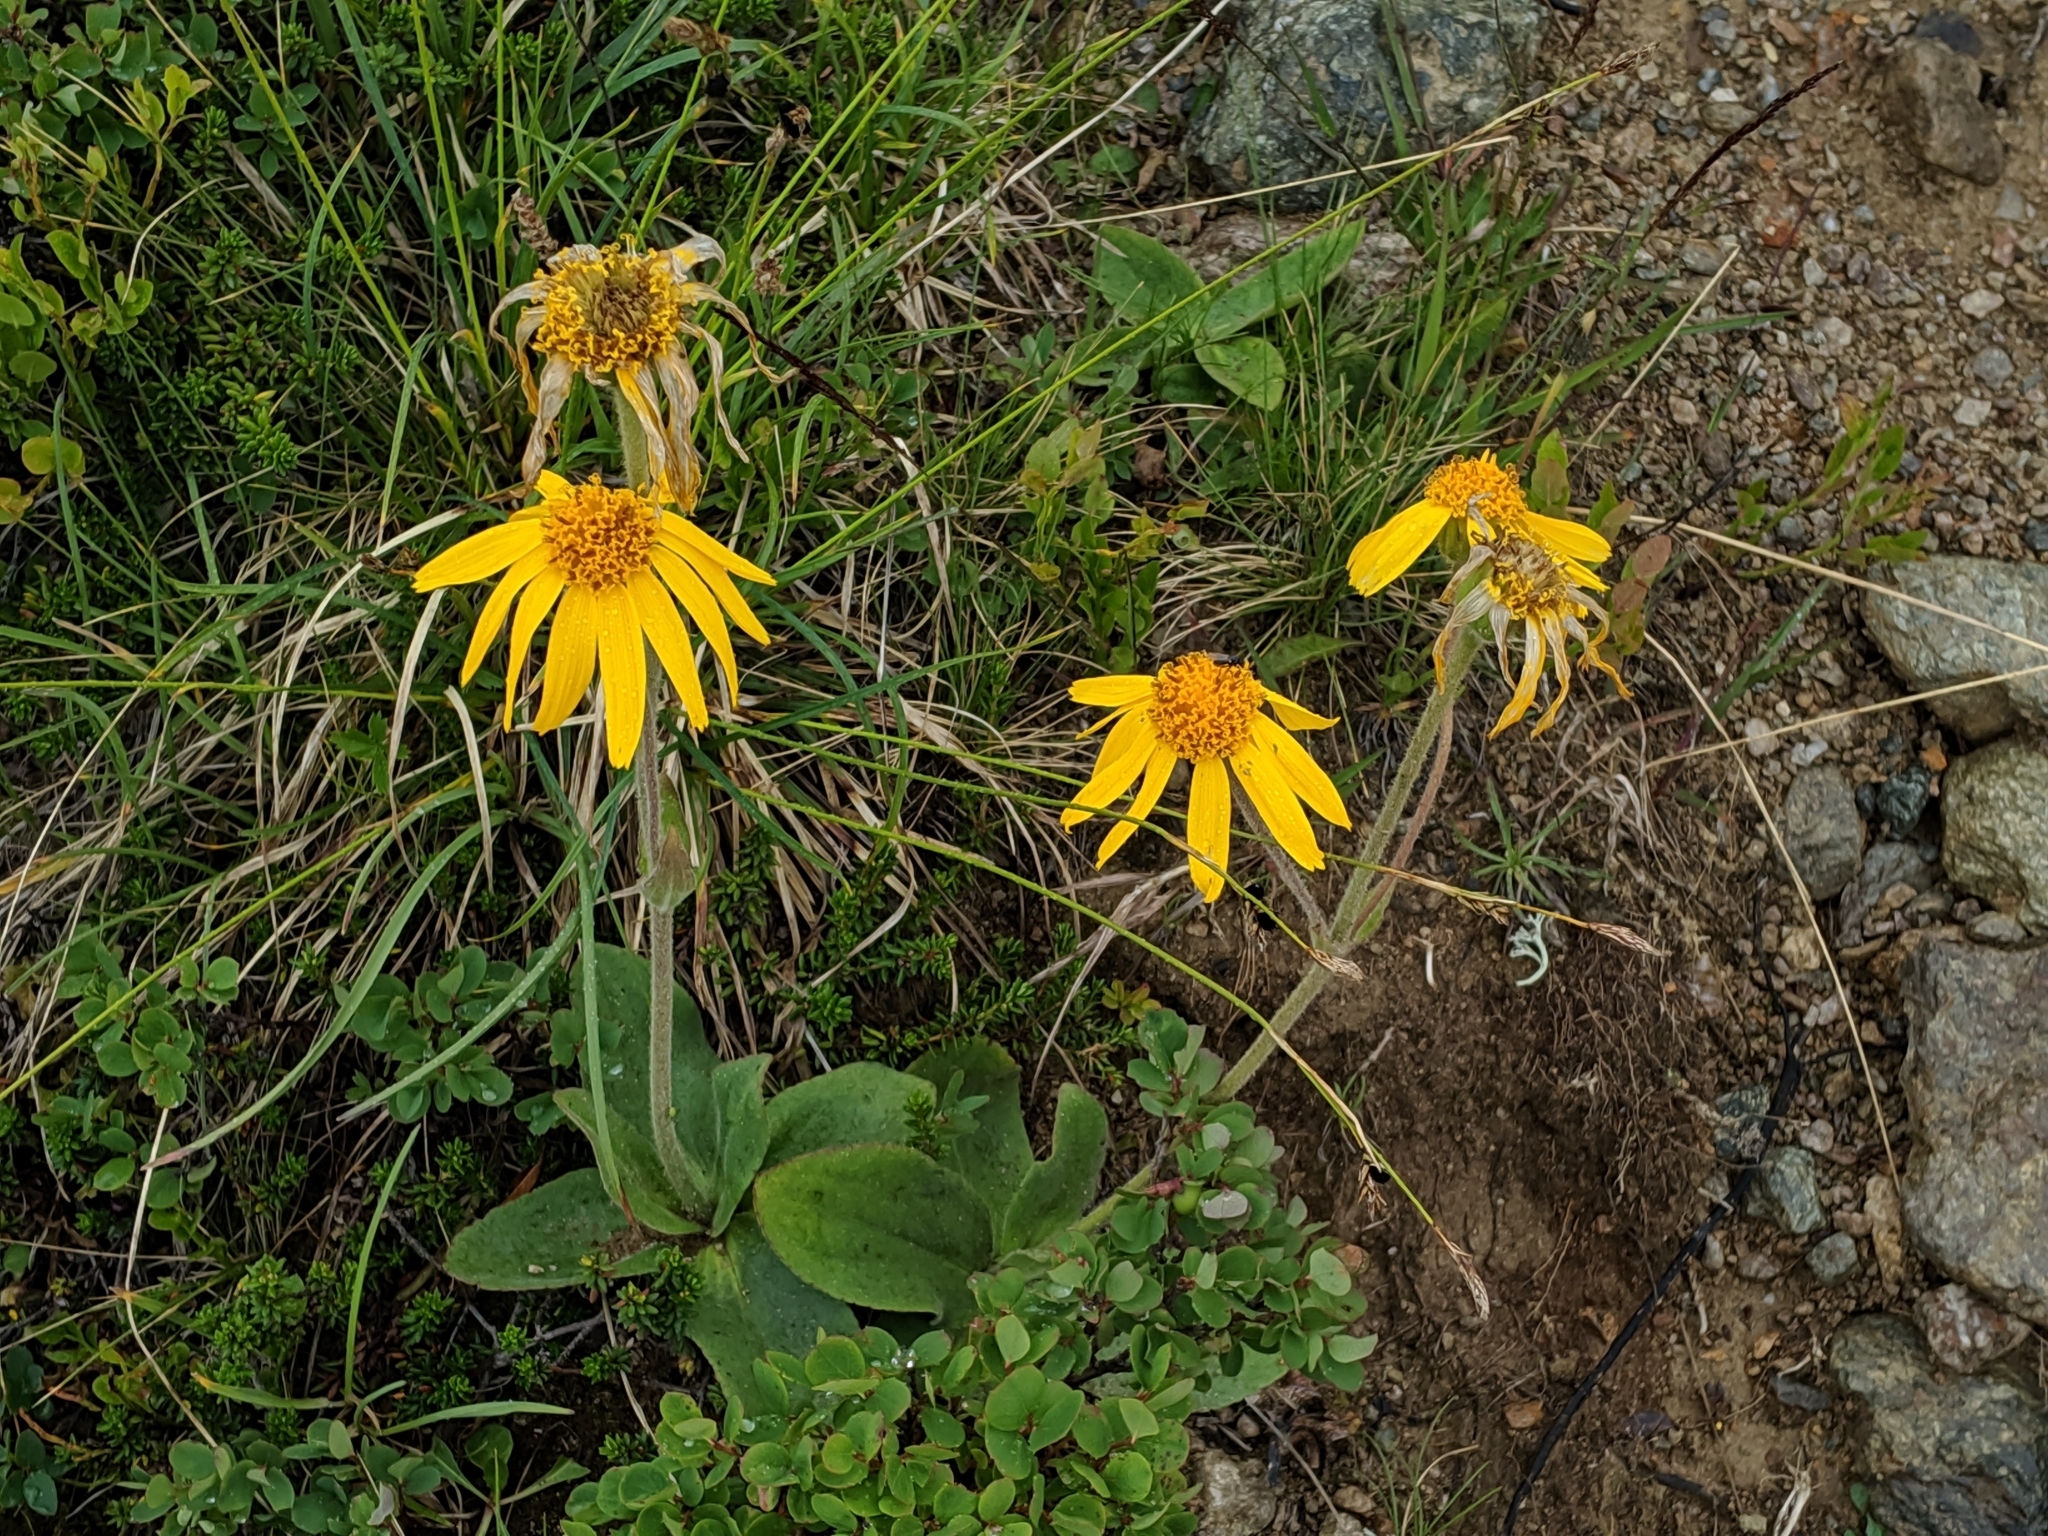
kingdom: Plantae
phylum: Tracheophyta
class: Magnoliopsida
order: Asterales
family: Asteraceae
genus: Arnica
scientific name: Arnica montana
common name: Leopard's bane
